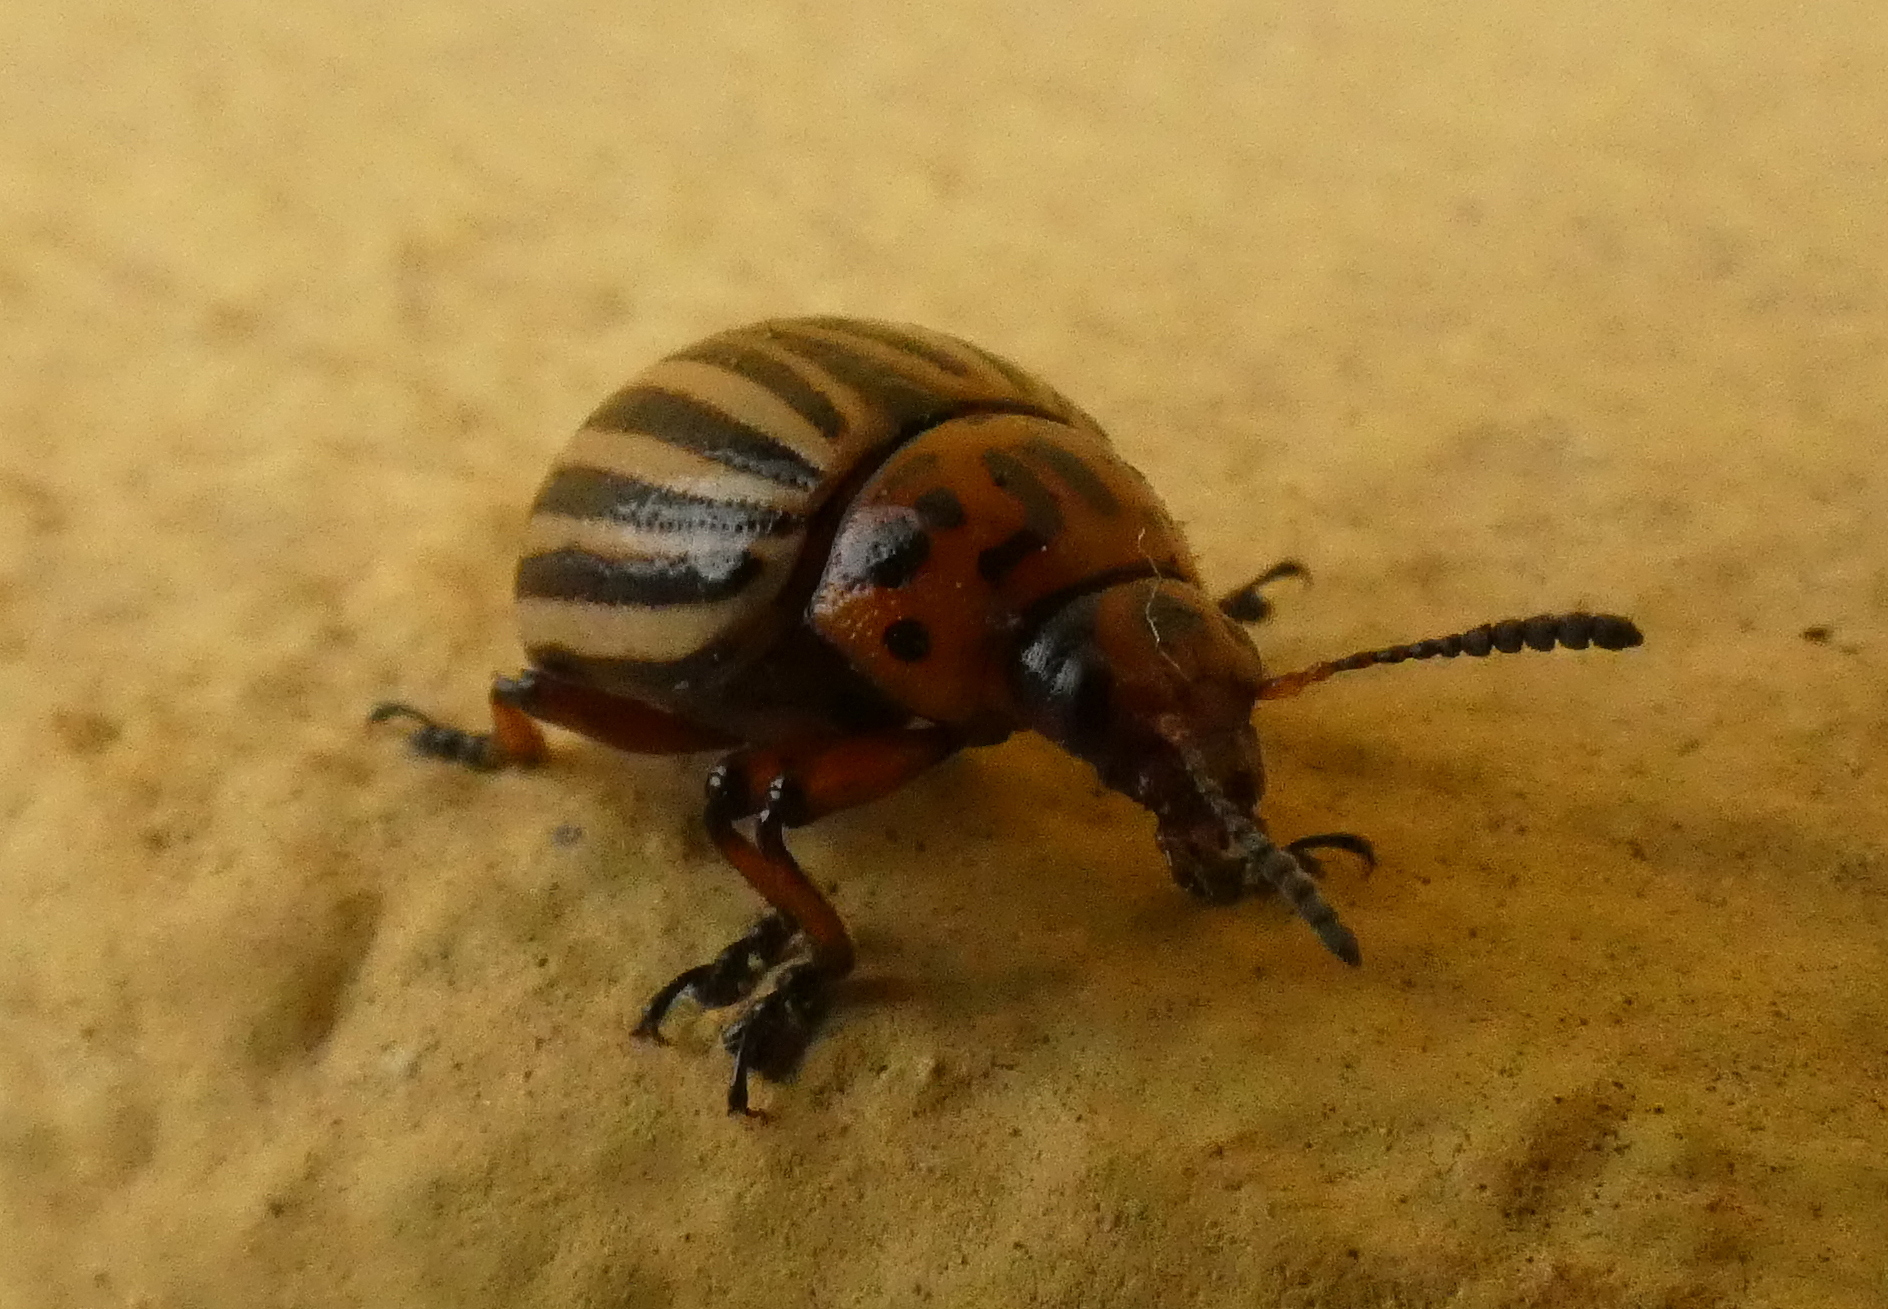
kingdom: Animalia
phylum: Arthropoda
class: Insecta
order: Coleoptera
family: Chrysomelidae
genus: Leptinotarsa
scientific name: Leptinotarsa decemlineata
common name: Colorado potato beetle
